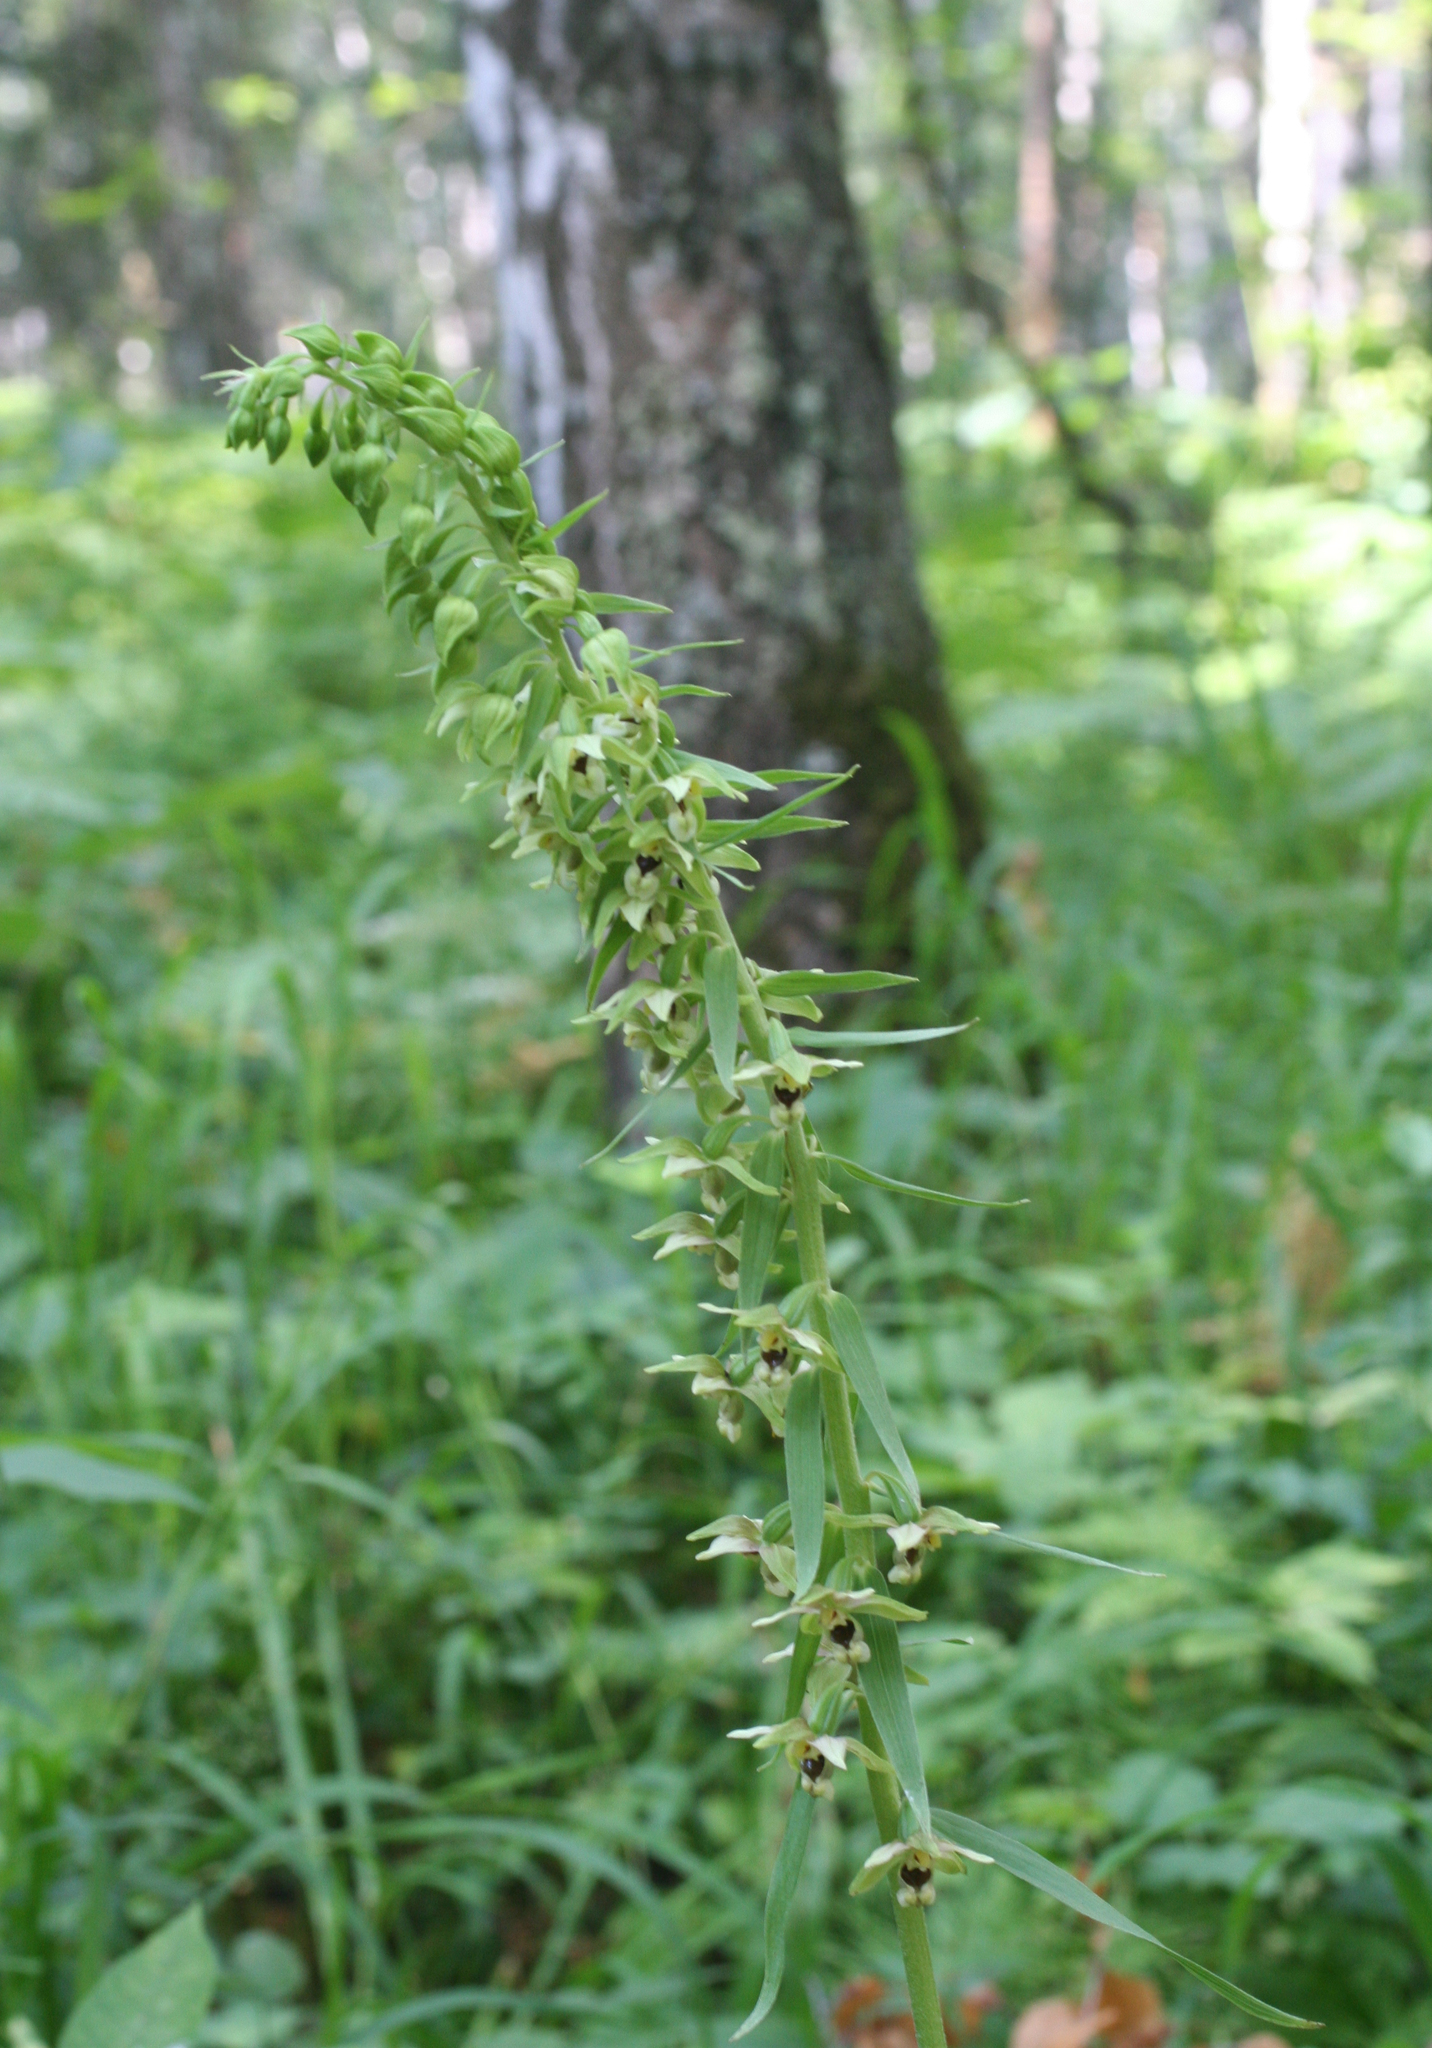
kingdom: Plantae
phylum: Tracheophyta
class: Liliopsida
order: Asparagales
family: Orchidaceae
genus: Epipactis
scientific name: Epipactis helleborine
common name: Broad-leaved helleborine
